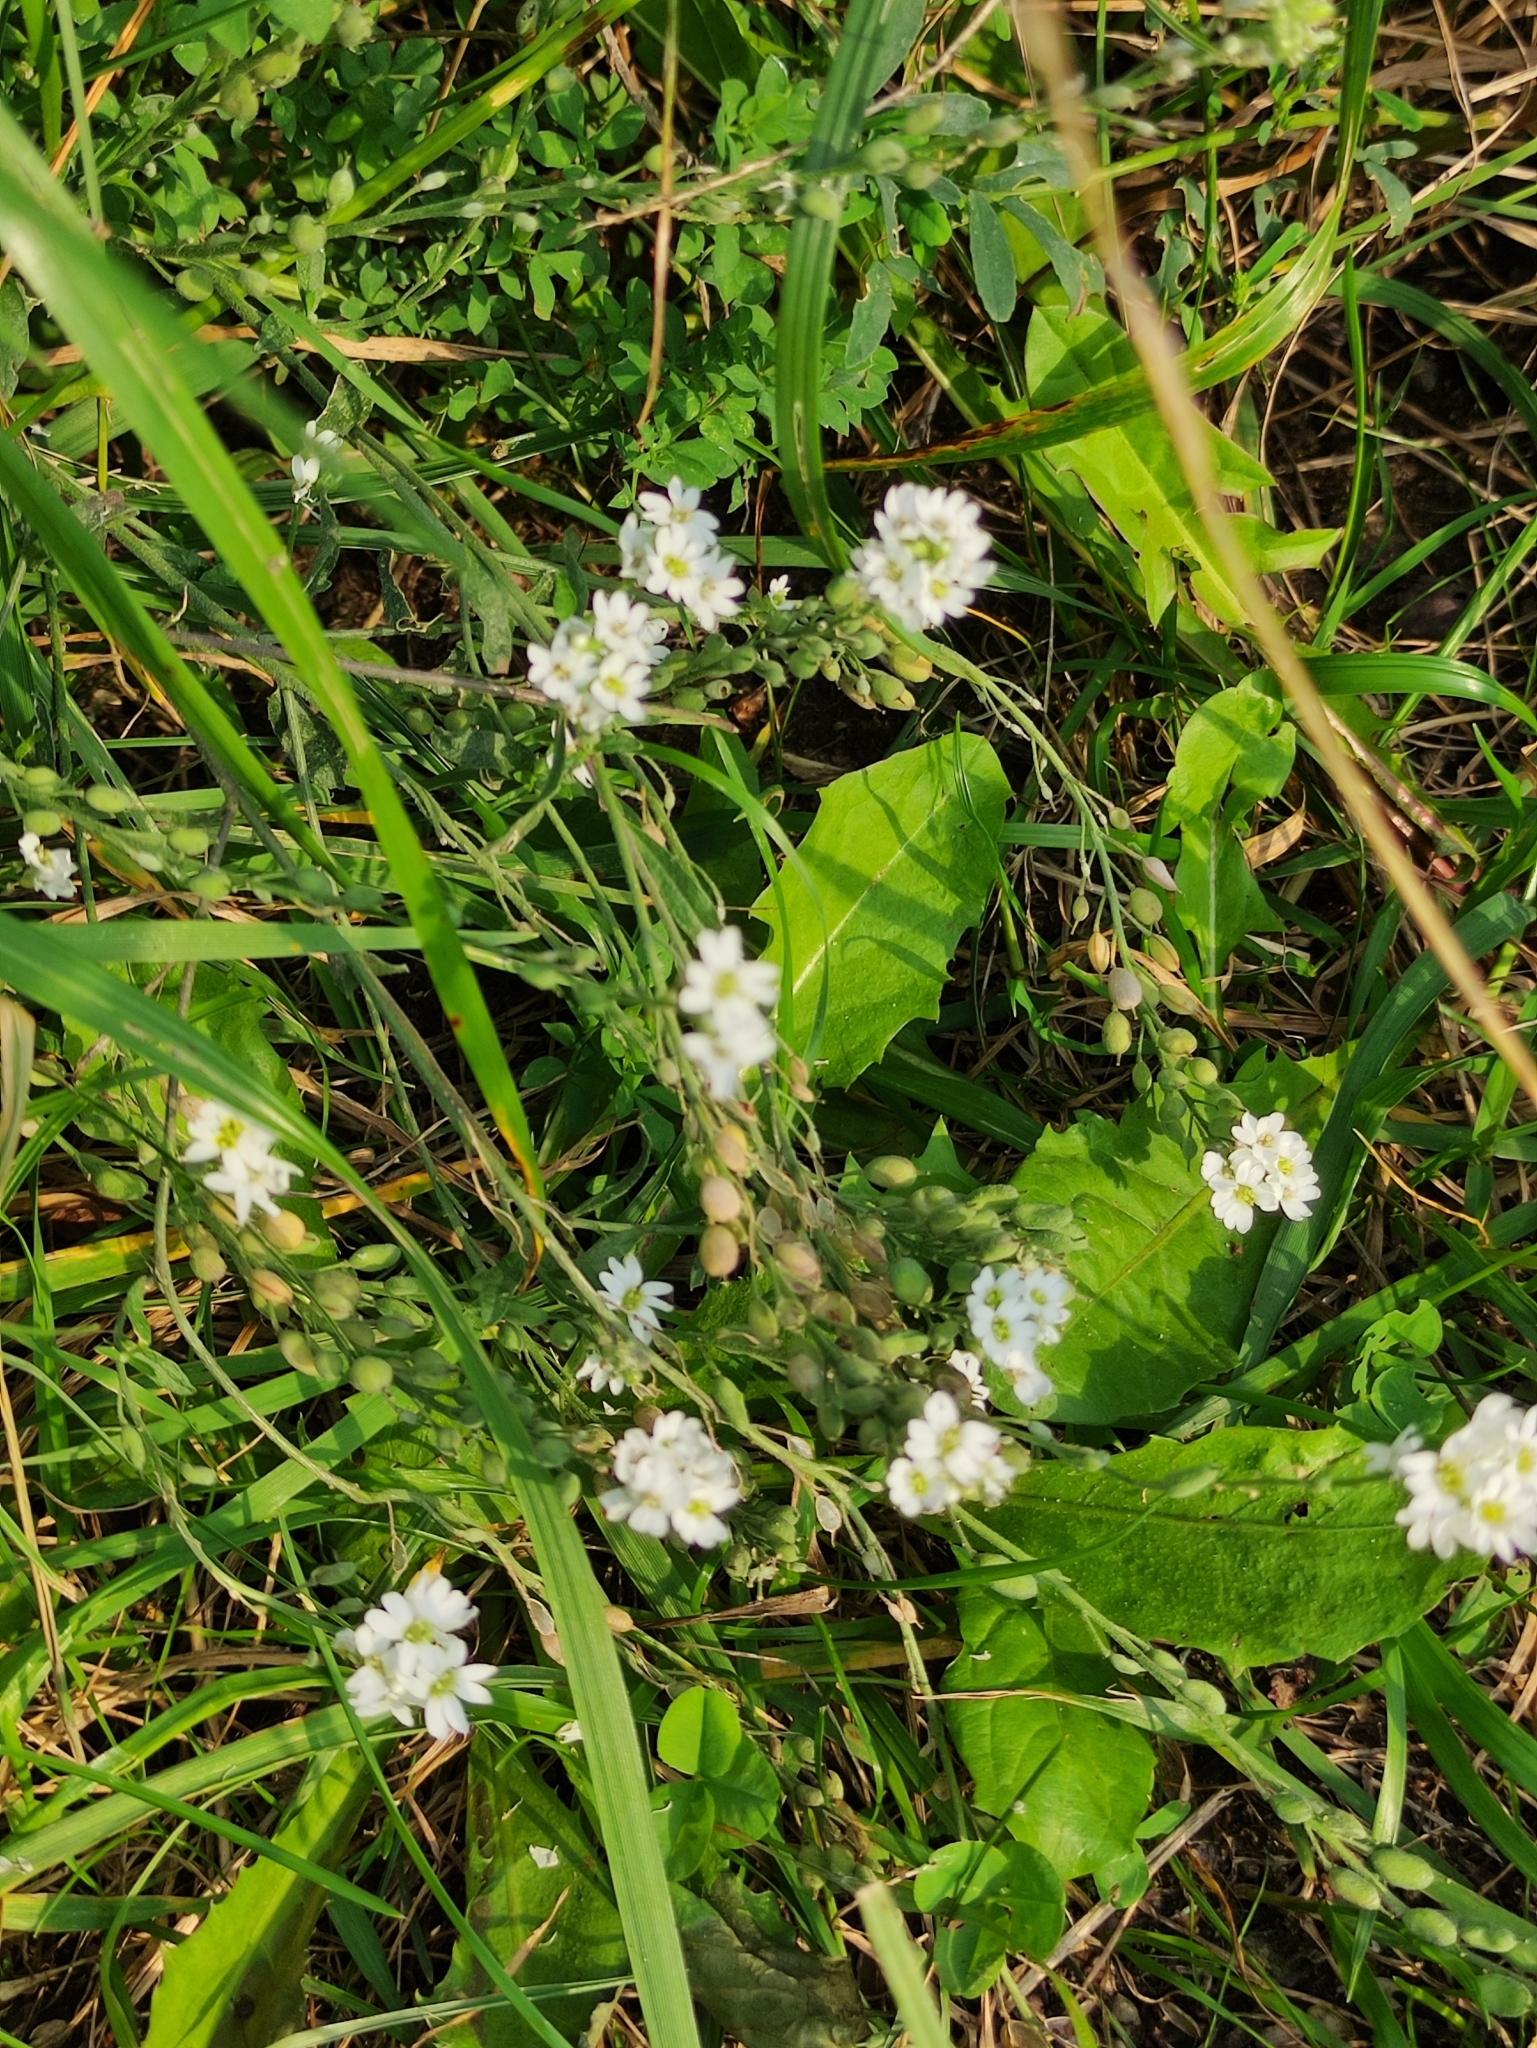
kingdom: Plantae
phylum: Tracheophyta
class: Magnoliopsida
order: Brassicales
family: Brassicaceae
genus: Berteroa
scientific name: Berteroa incana
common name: Hoary alison
